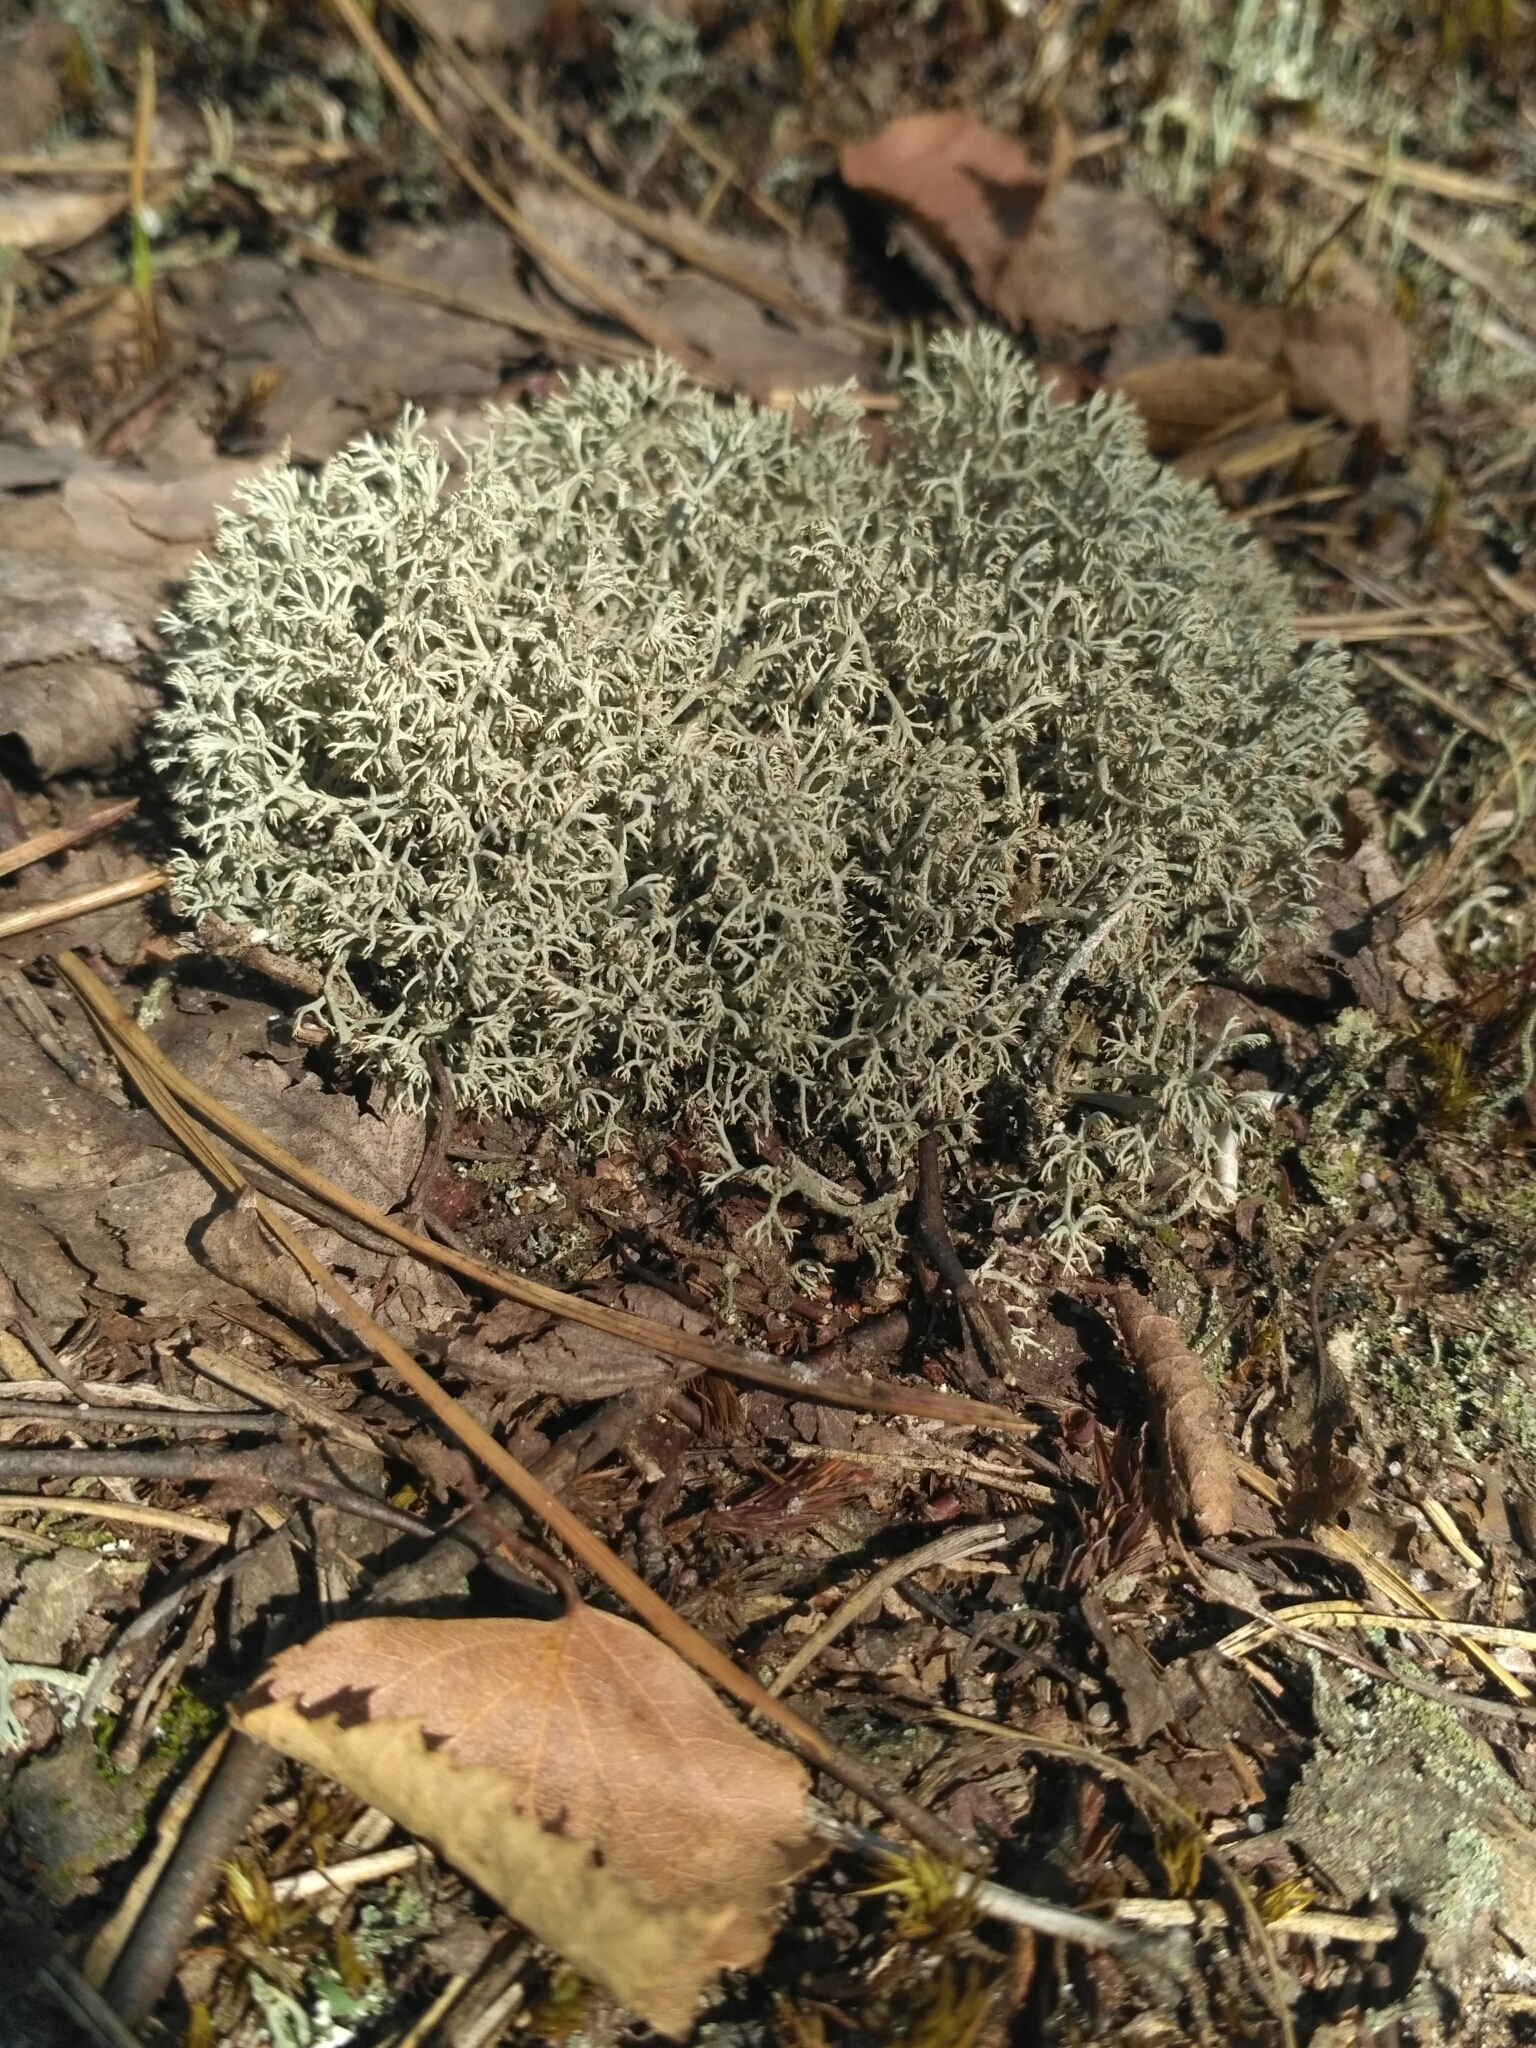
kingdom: Fungi
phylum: Ascomycota
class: Lecanoromycetes
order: Lecanorales
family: Cladoniaceae
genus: Cladonia
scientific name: Cladonia arbuscula
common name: Reindeer lichen
